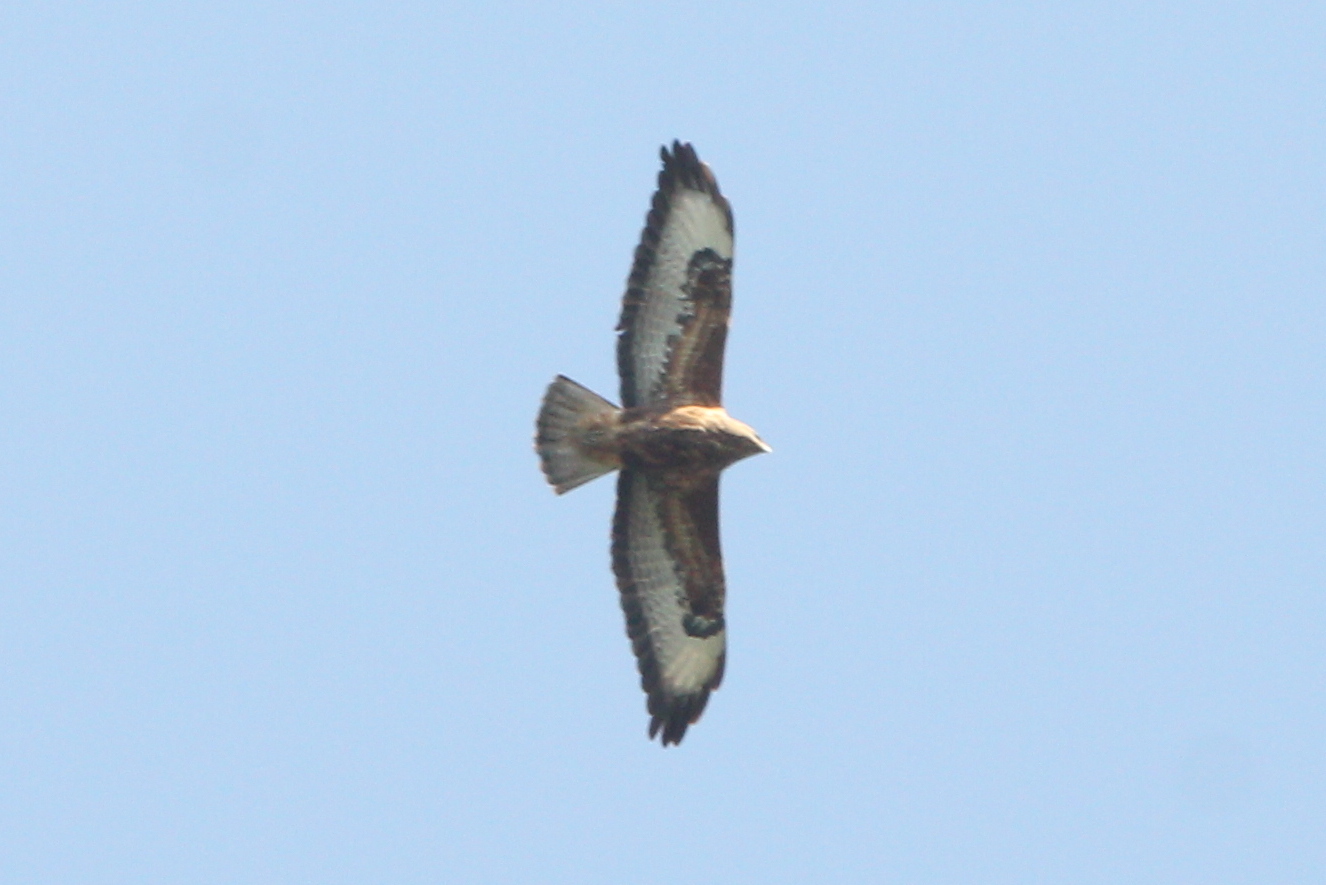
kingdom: Animalia
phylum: Chordata
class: Aves
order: Accipitriformes
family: Accipitridae
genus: Buteo
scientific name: Buteo buteo
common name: Common buzzard
